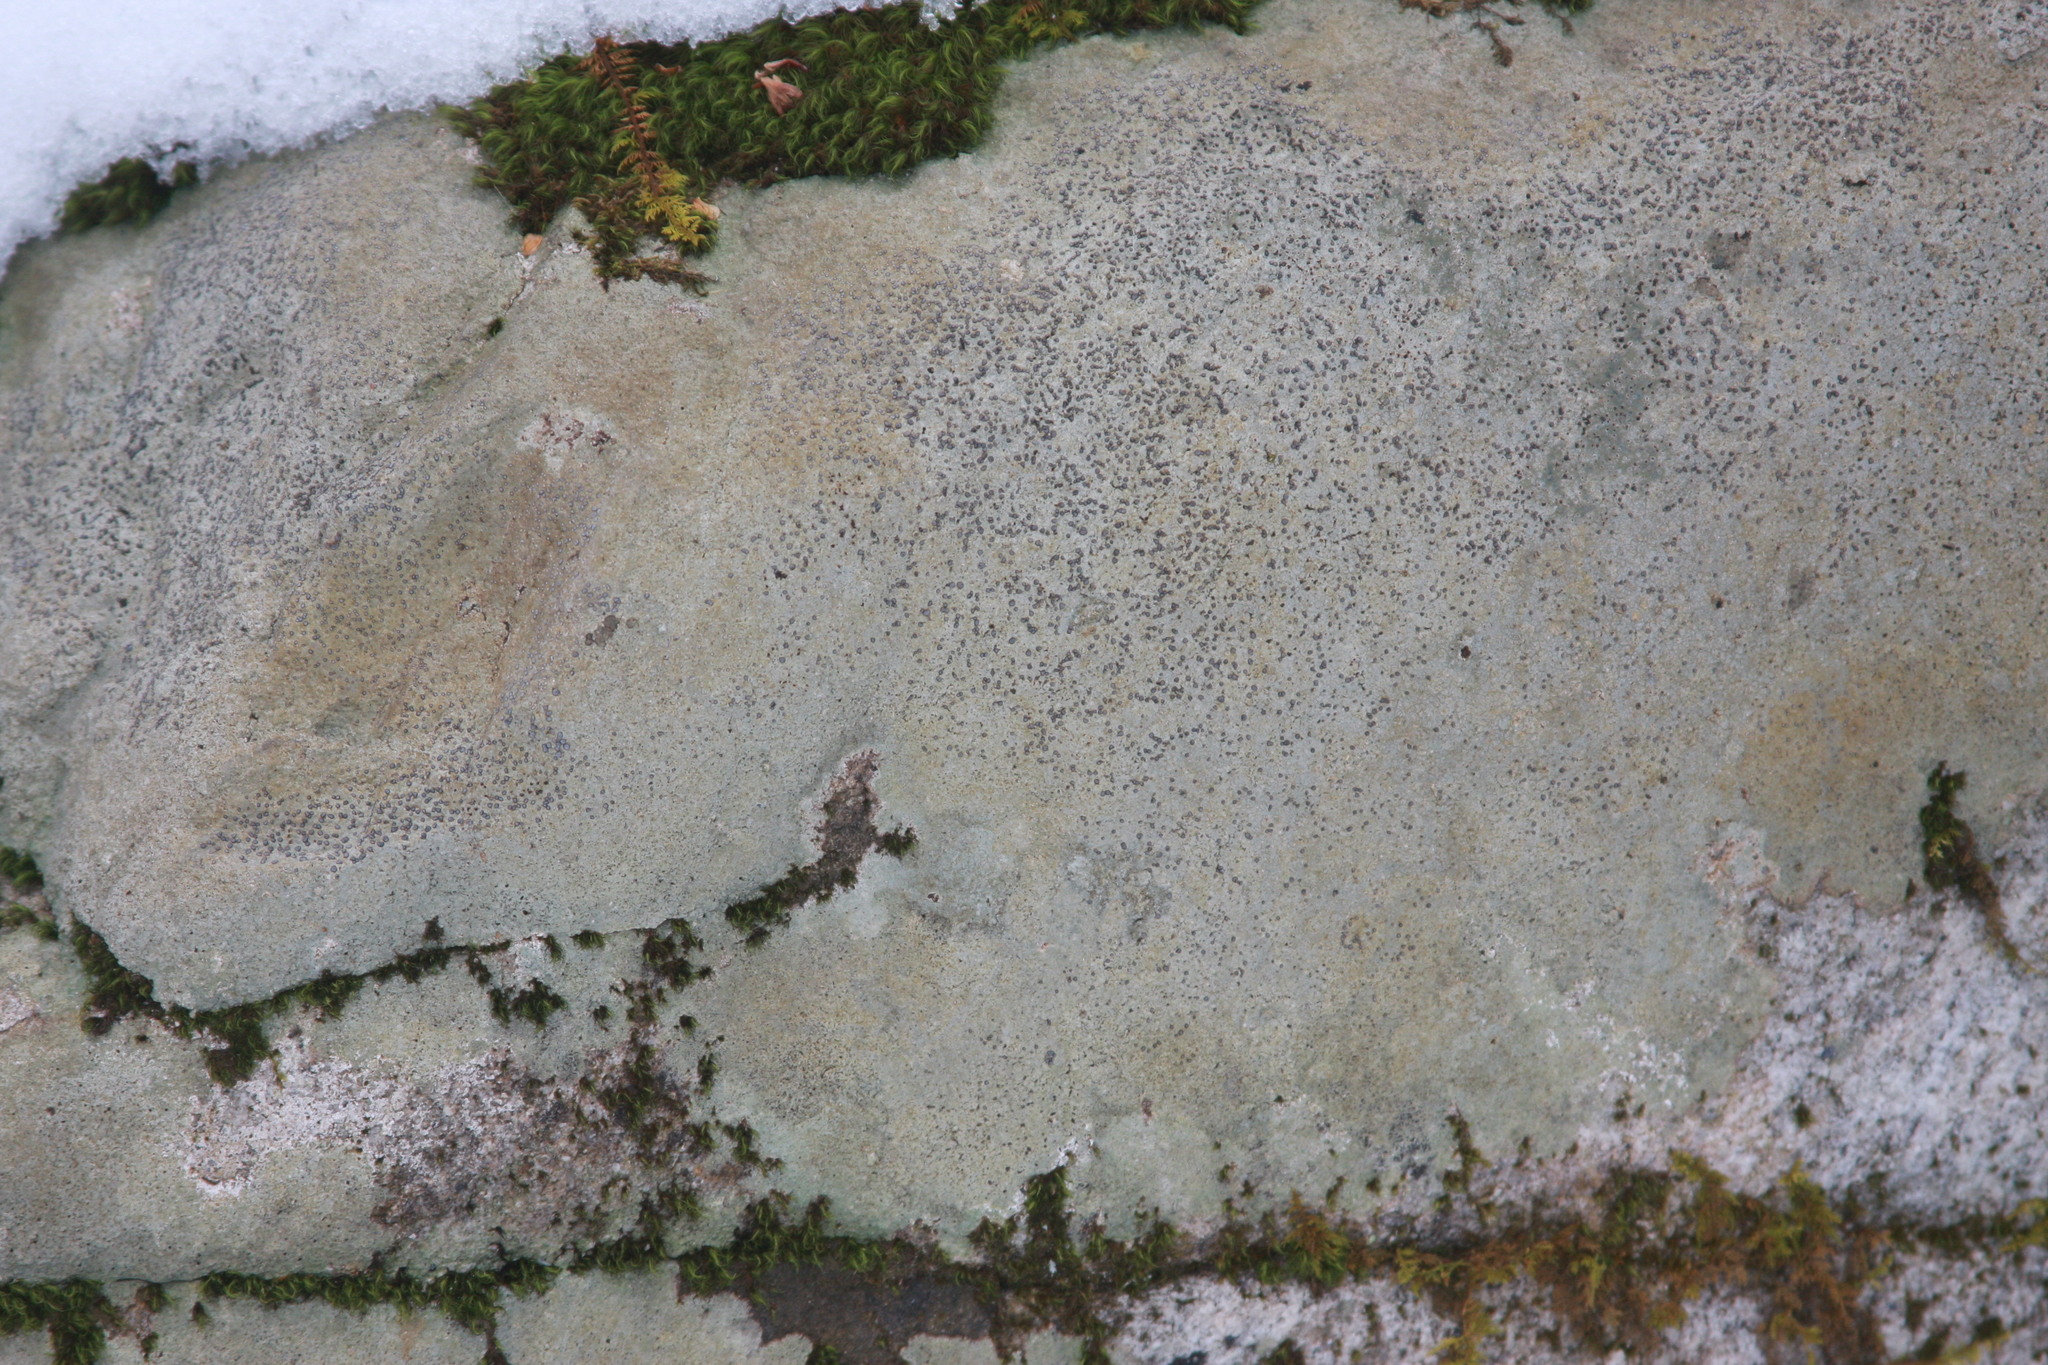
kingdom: Fungi
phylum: Ascomycota
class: Lecanoromycetes
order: Lecideales
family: Lecideaceae
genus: Porpidia
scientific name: Porpidia albocaerulescens
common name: Smokey-eyed boulder lichen
